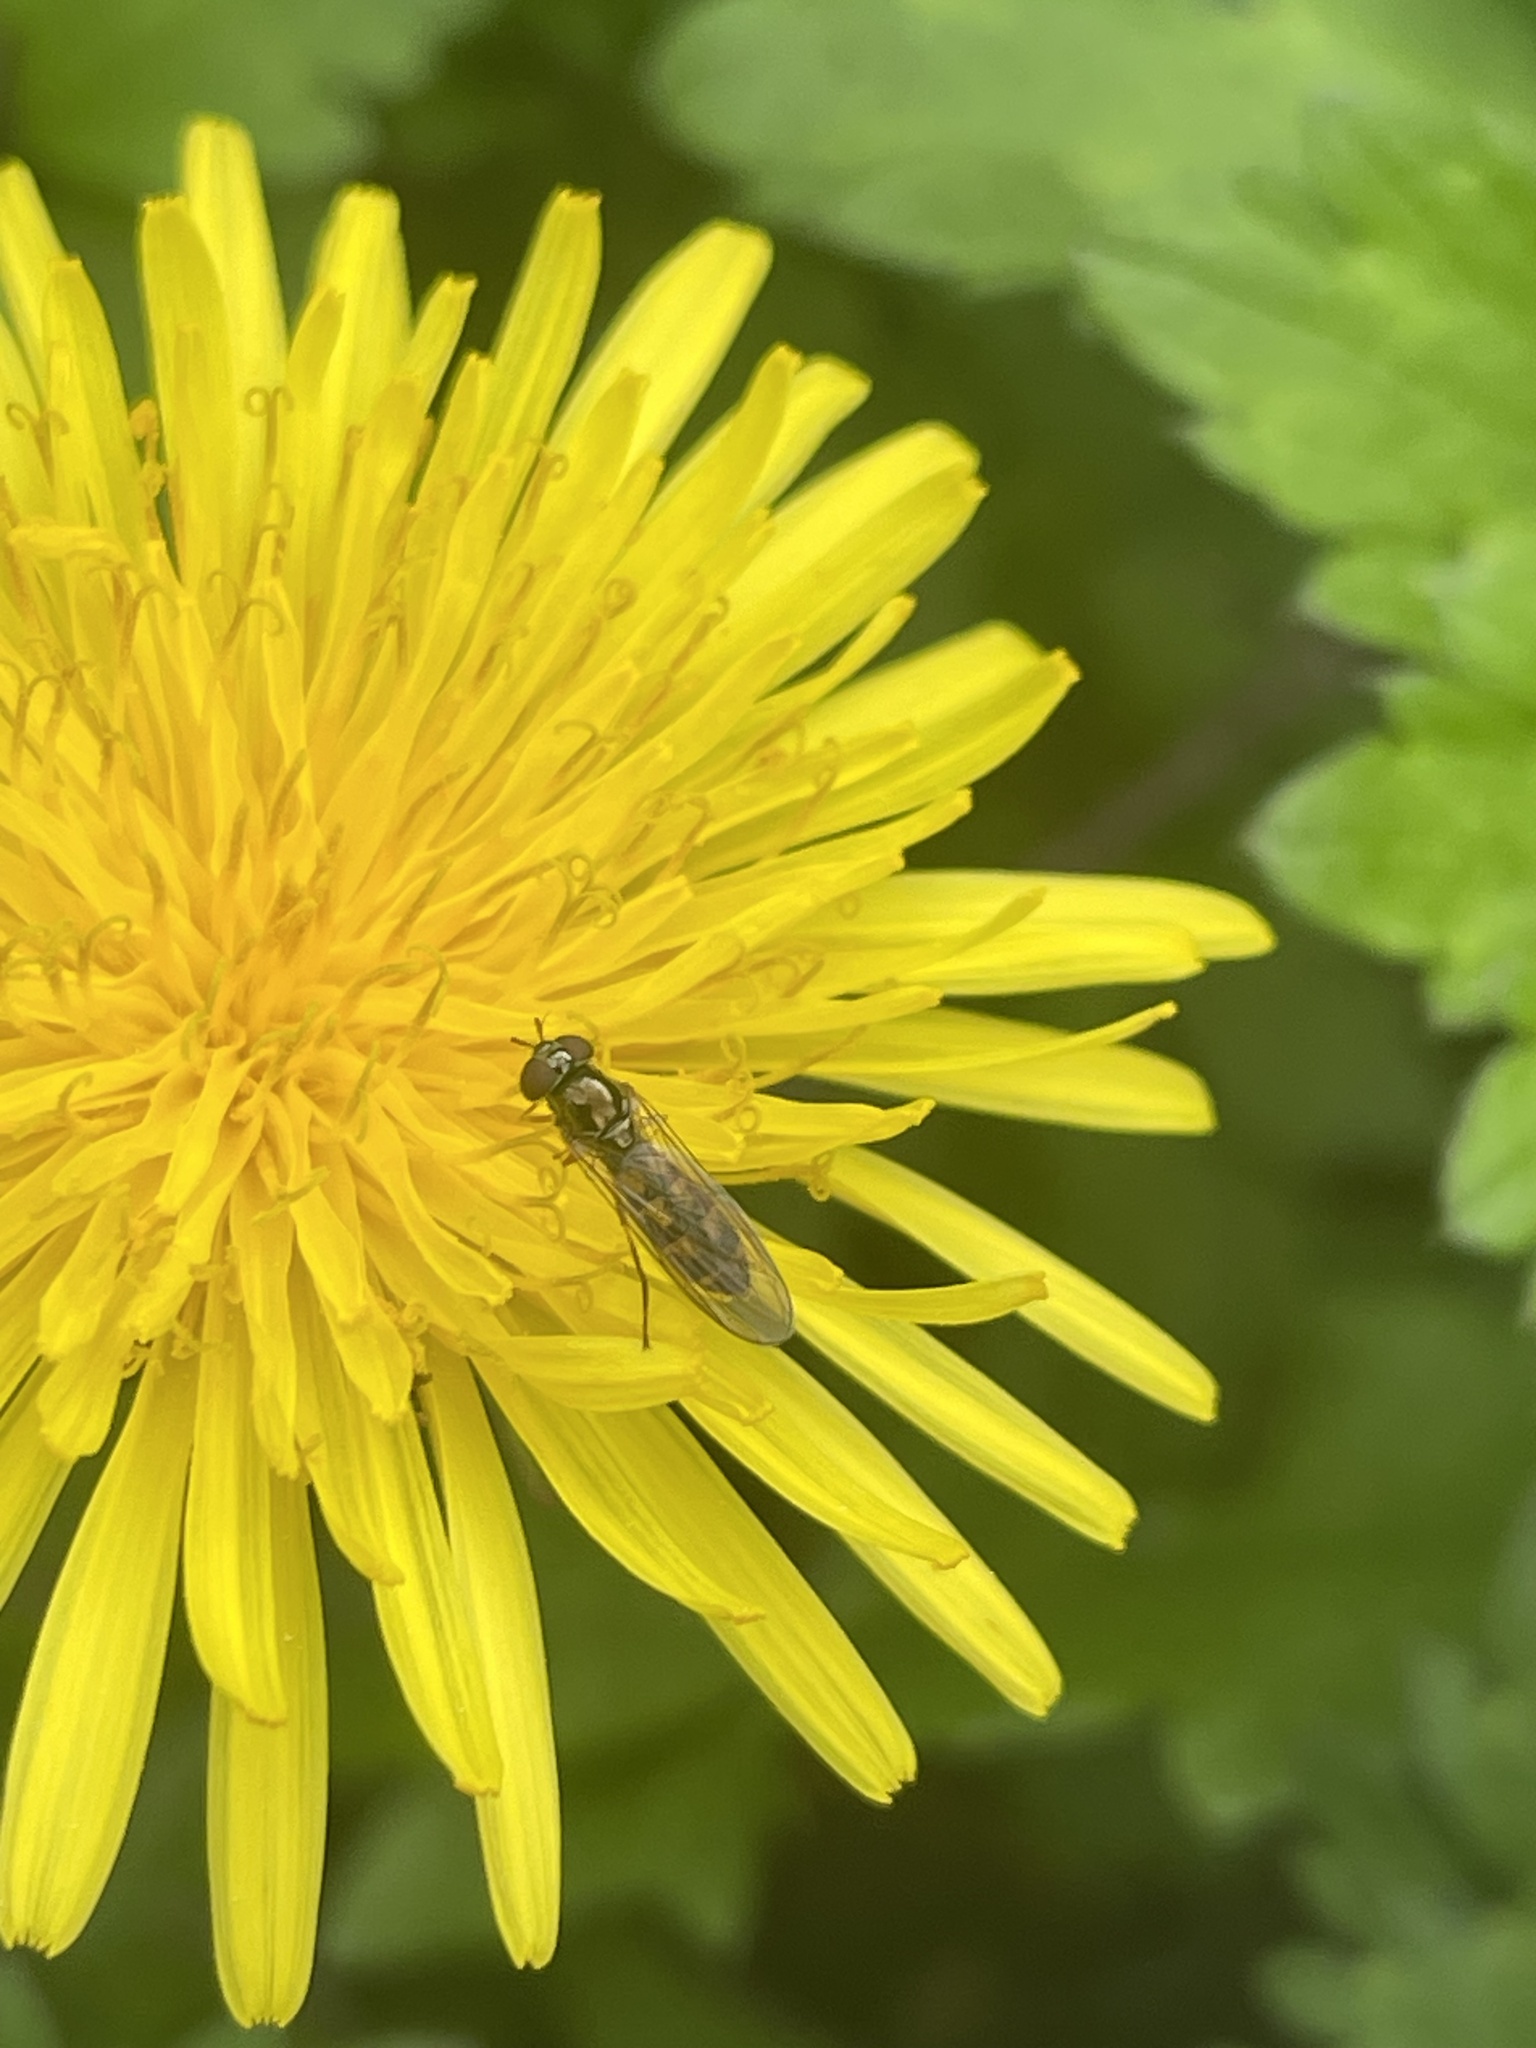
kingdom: Animalia
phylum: Arthropoda
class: Insecta
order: Diptera
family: Syrphidae
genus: Melanostoma
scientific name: Melanostoma scalare
